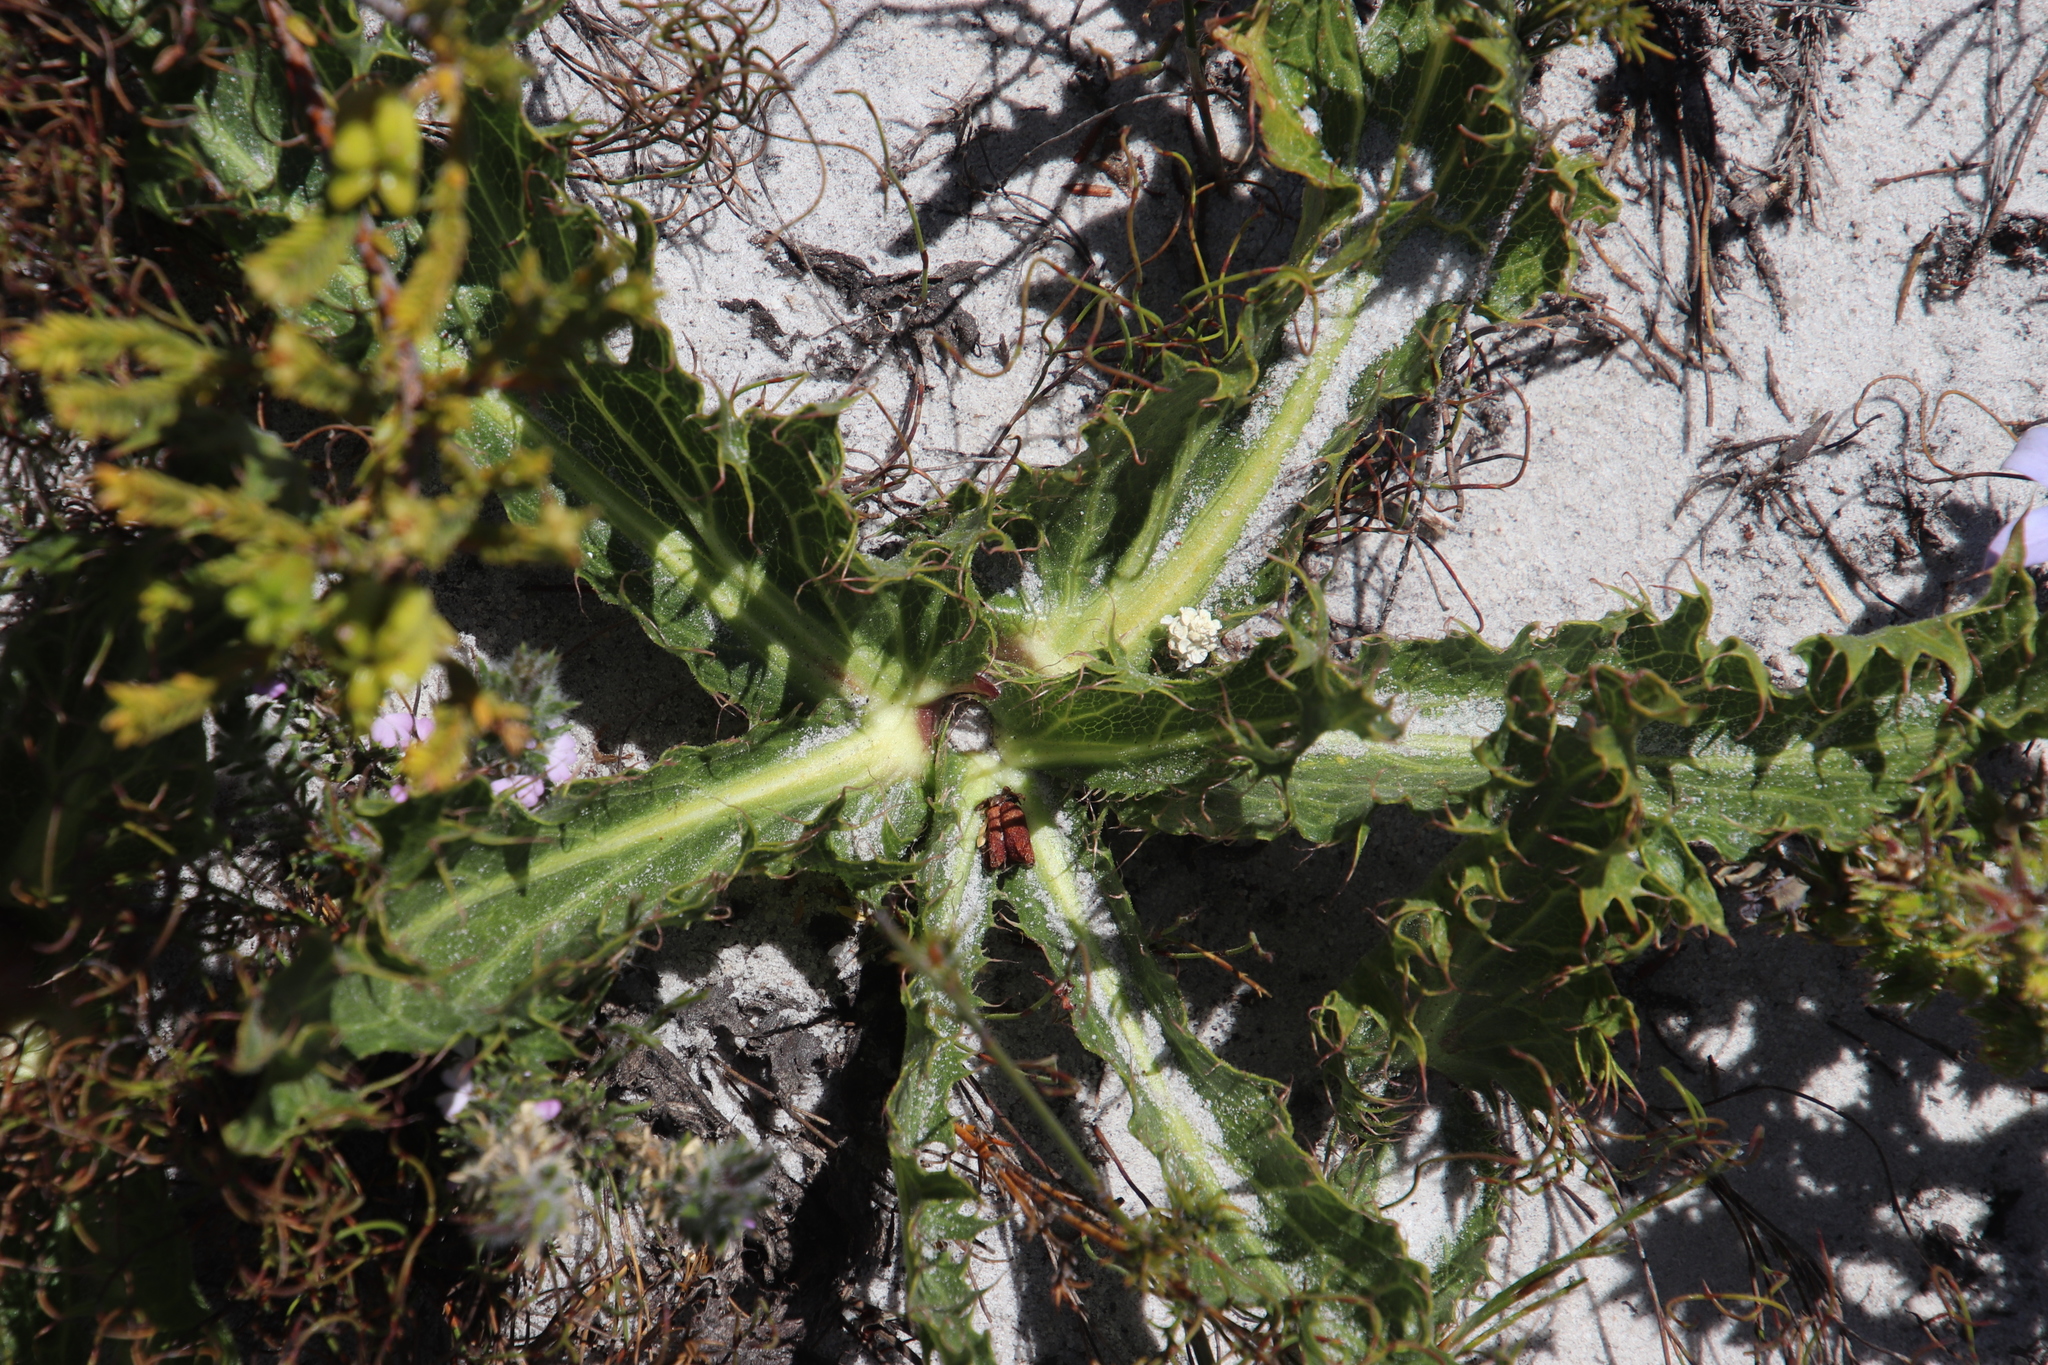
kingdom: Plantae
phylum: Tracheophyta
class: Magnoliopsida
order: Apiales
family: Apiaceae
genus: Lichtensteinia
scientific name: Lichtensteinia lacera
